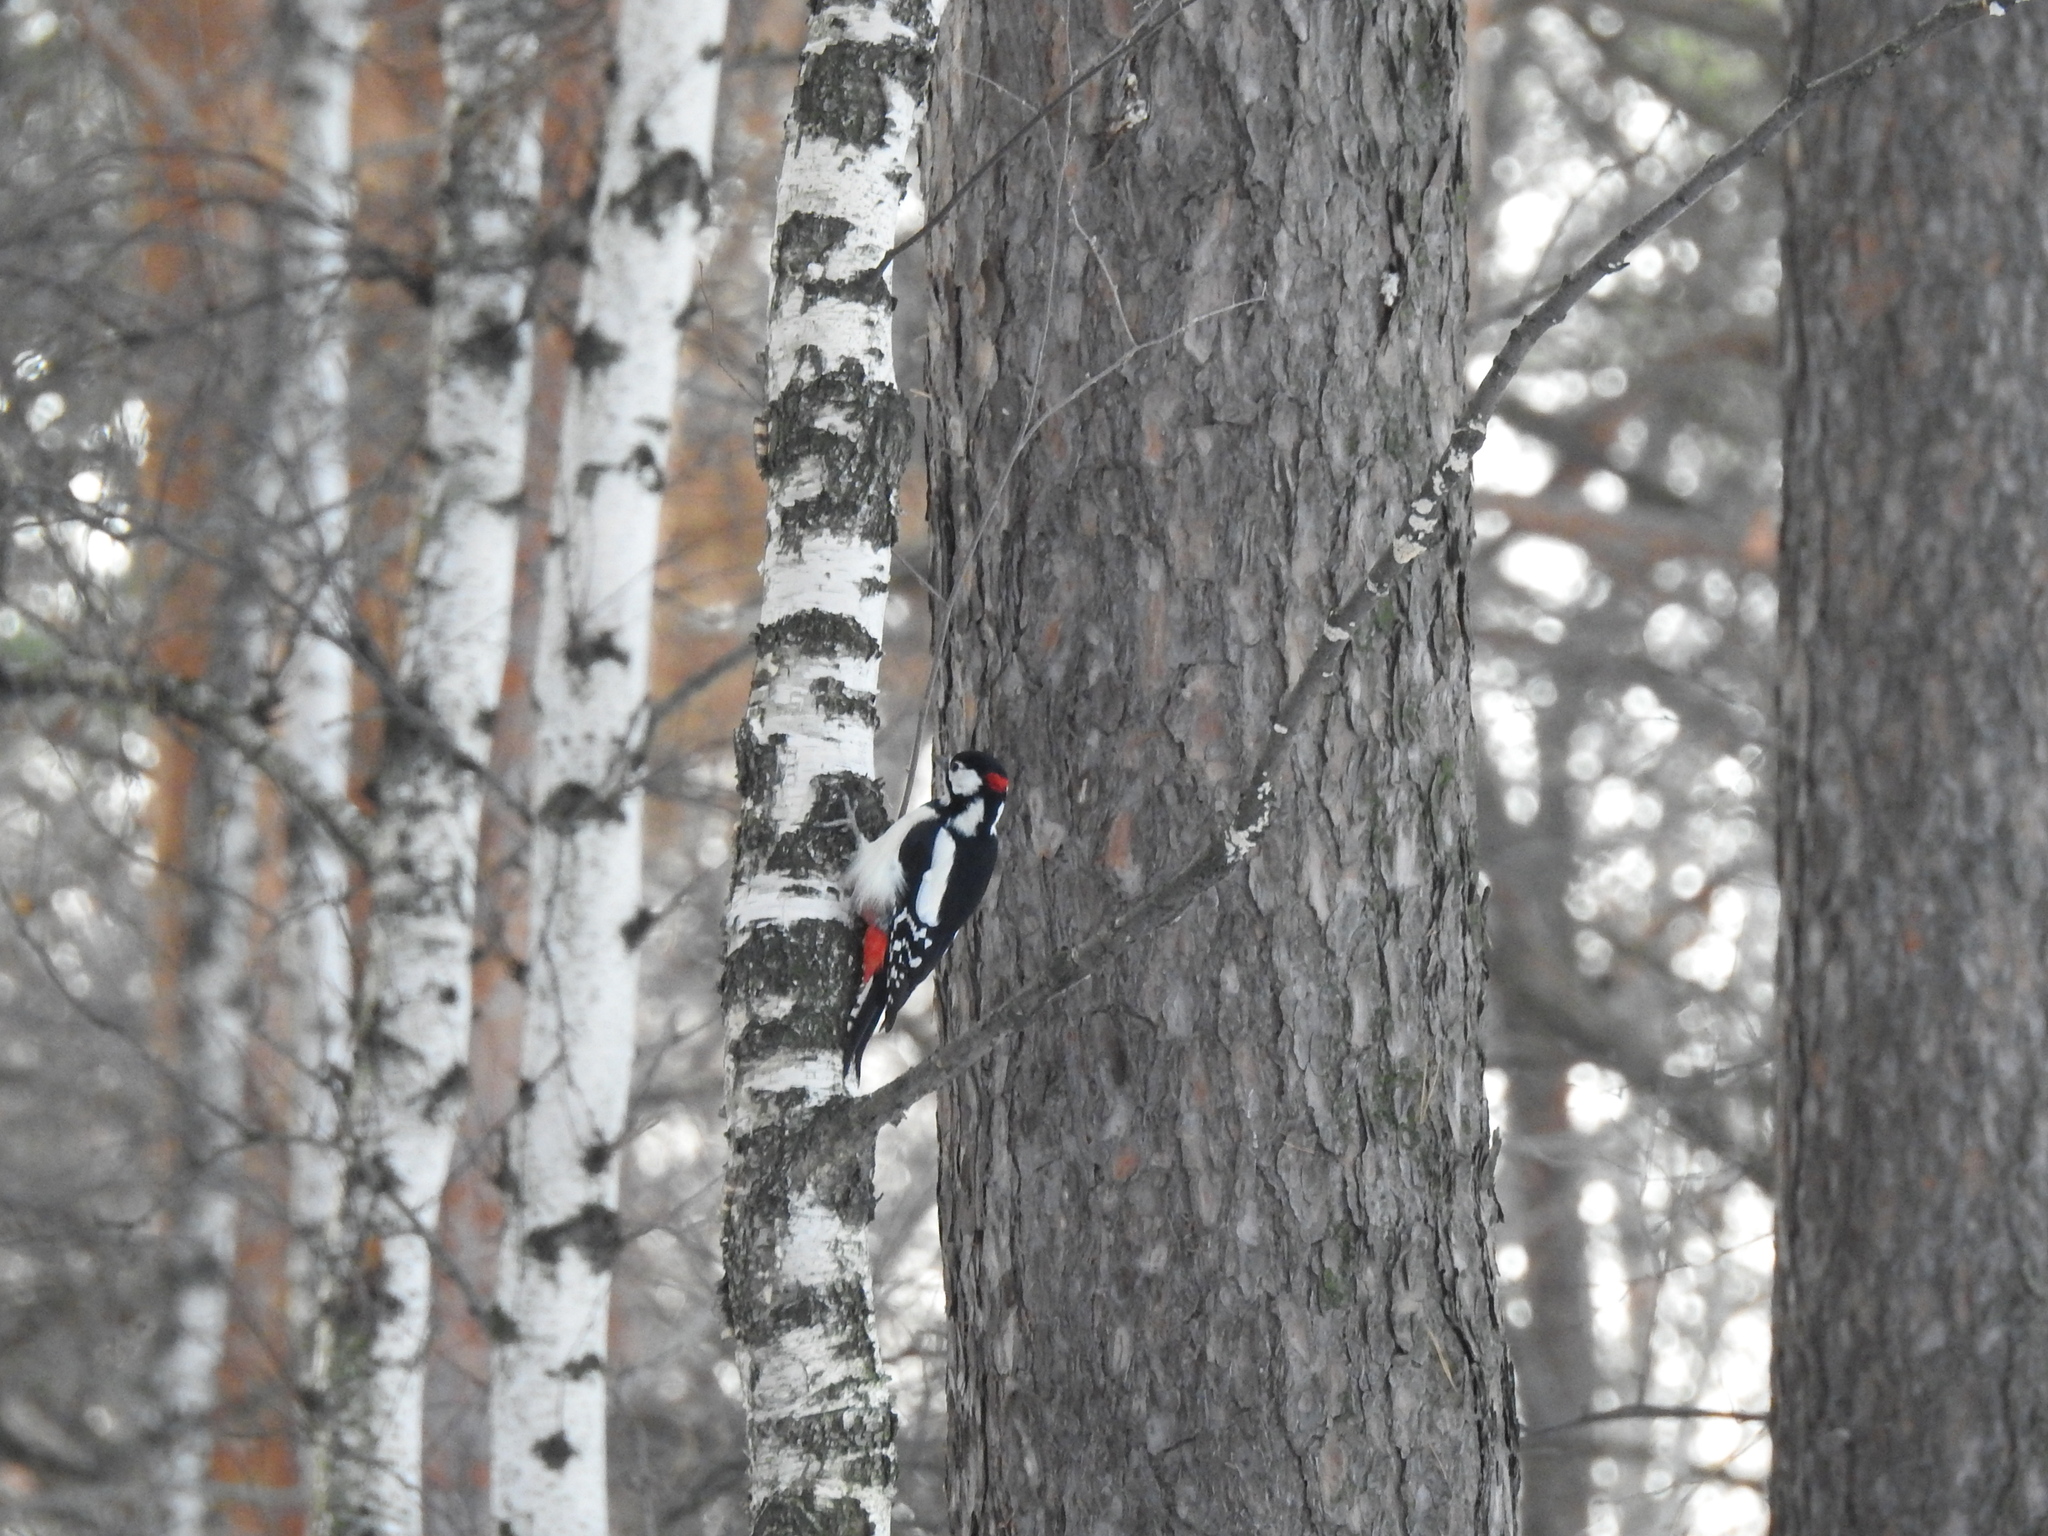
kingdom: Animalia
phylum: Chordata
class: Aves
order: Piciformes
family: Picidae
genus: Dendrocopos
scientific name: Dendrocopos major
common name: Great spotted woodpecker
